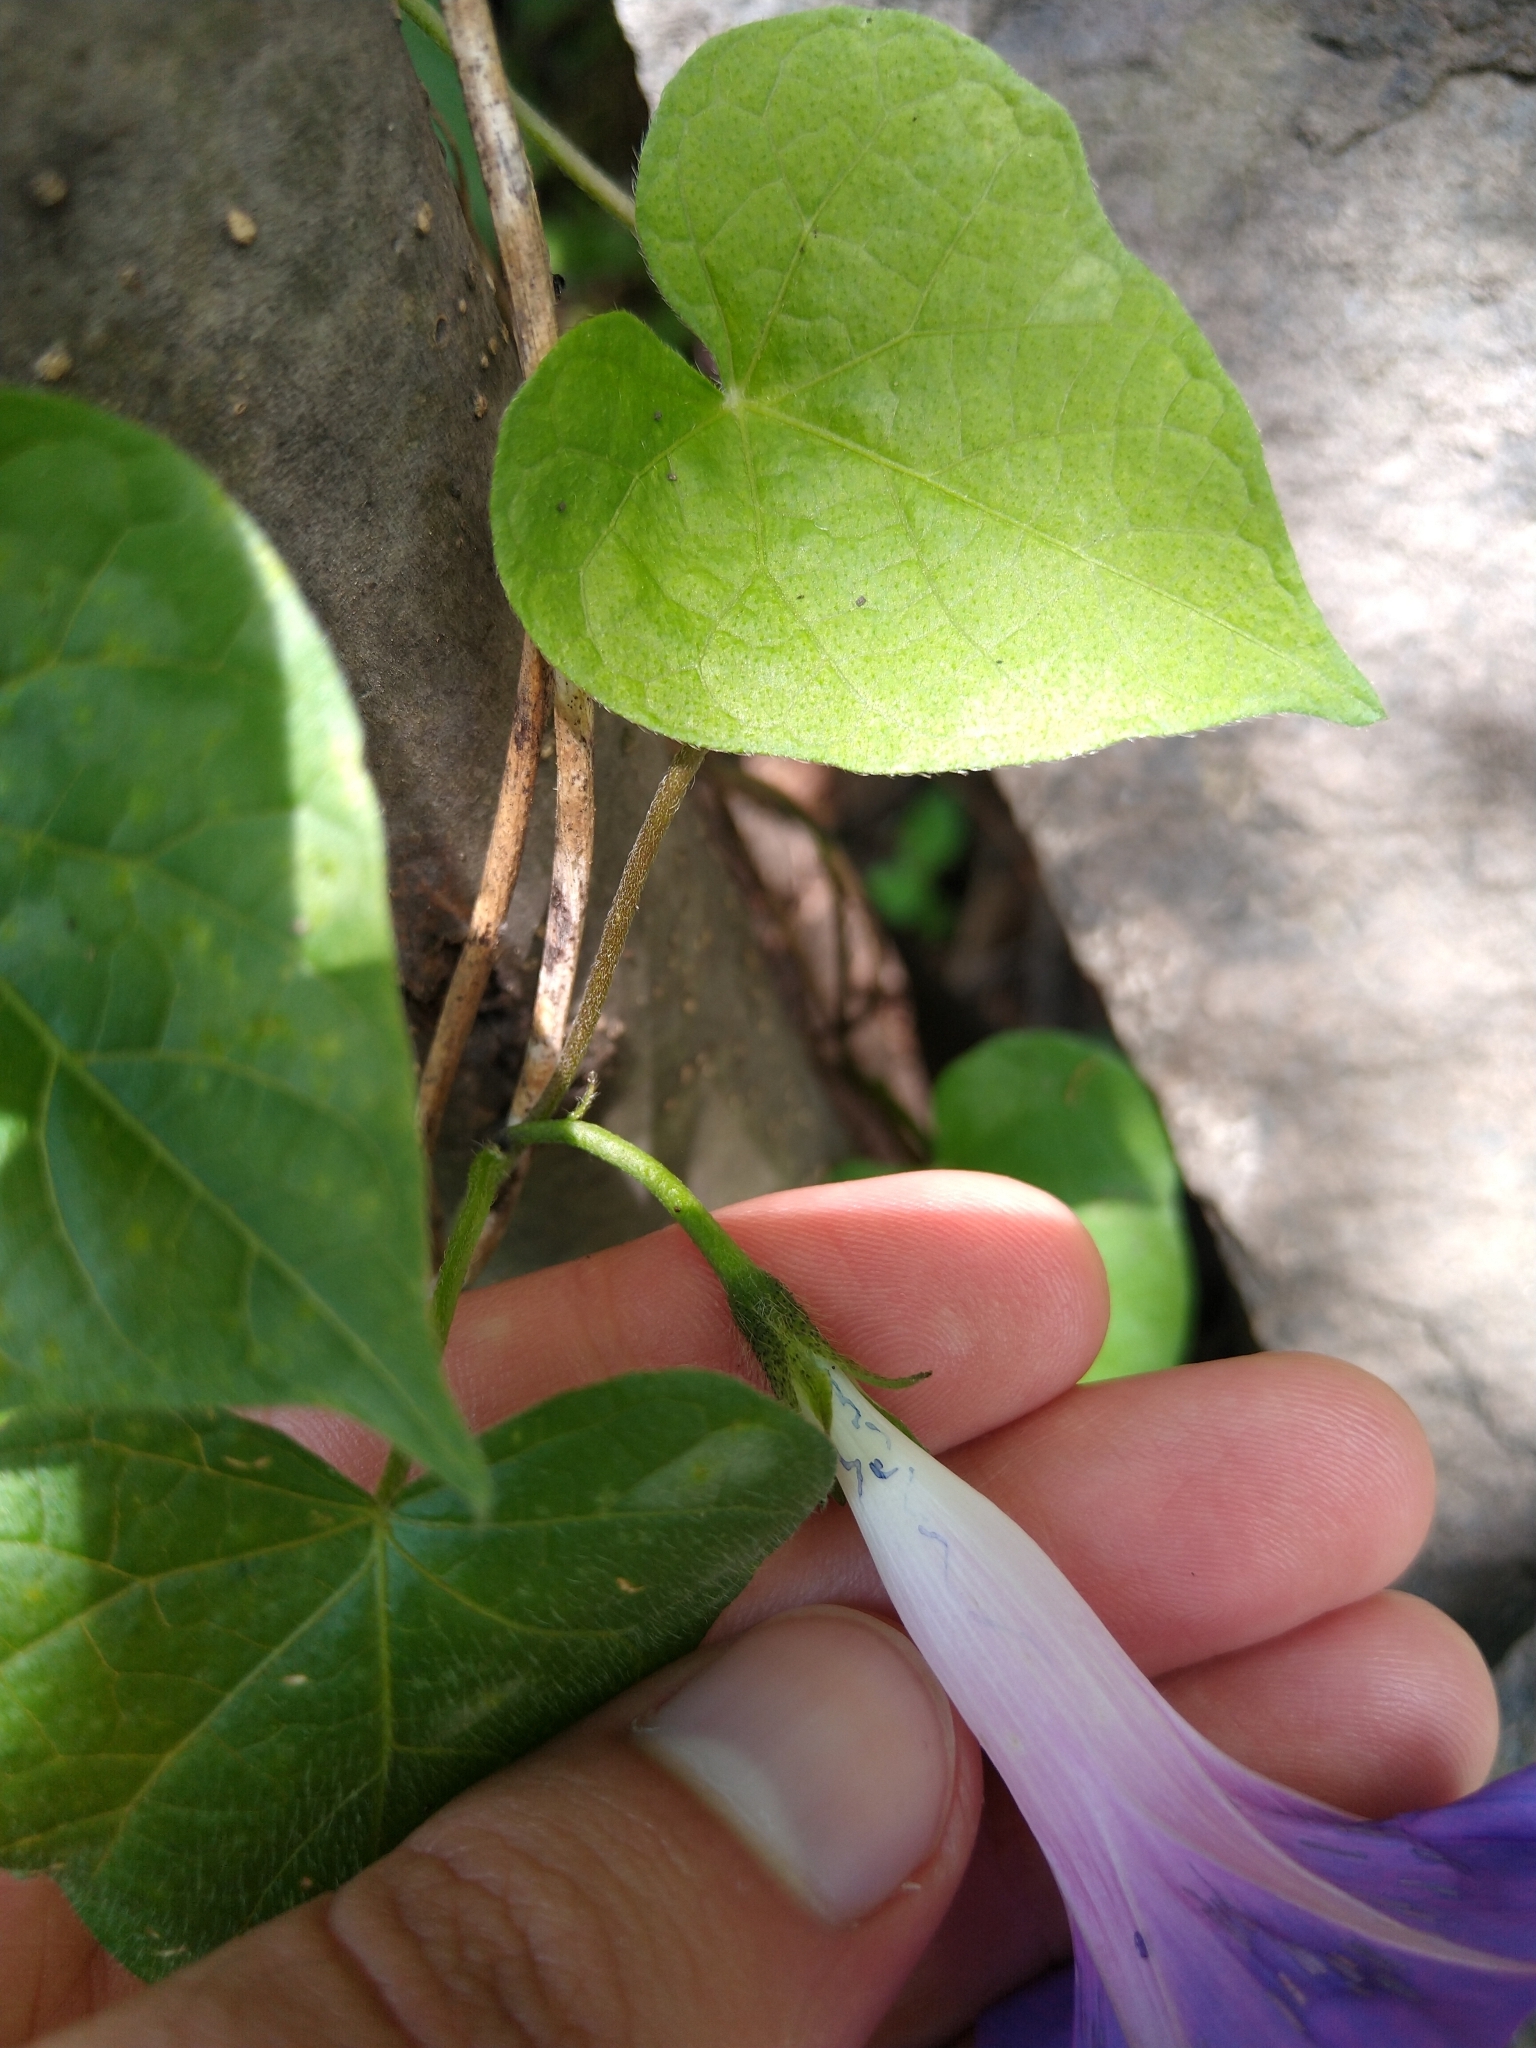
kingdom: Plantae
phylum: Tracheophyta
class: Magnoliopsida
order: Solanales
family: Convolvulaceae
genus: Ipomoea
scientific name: Ipomoea purpurea
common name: Common morning-glory
